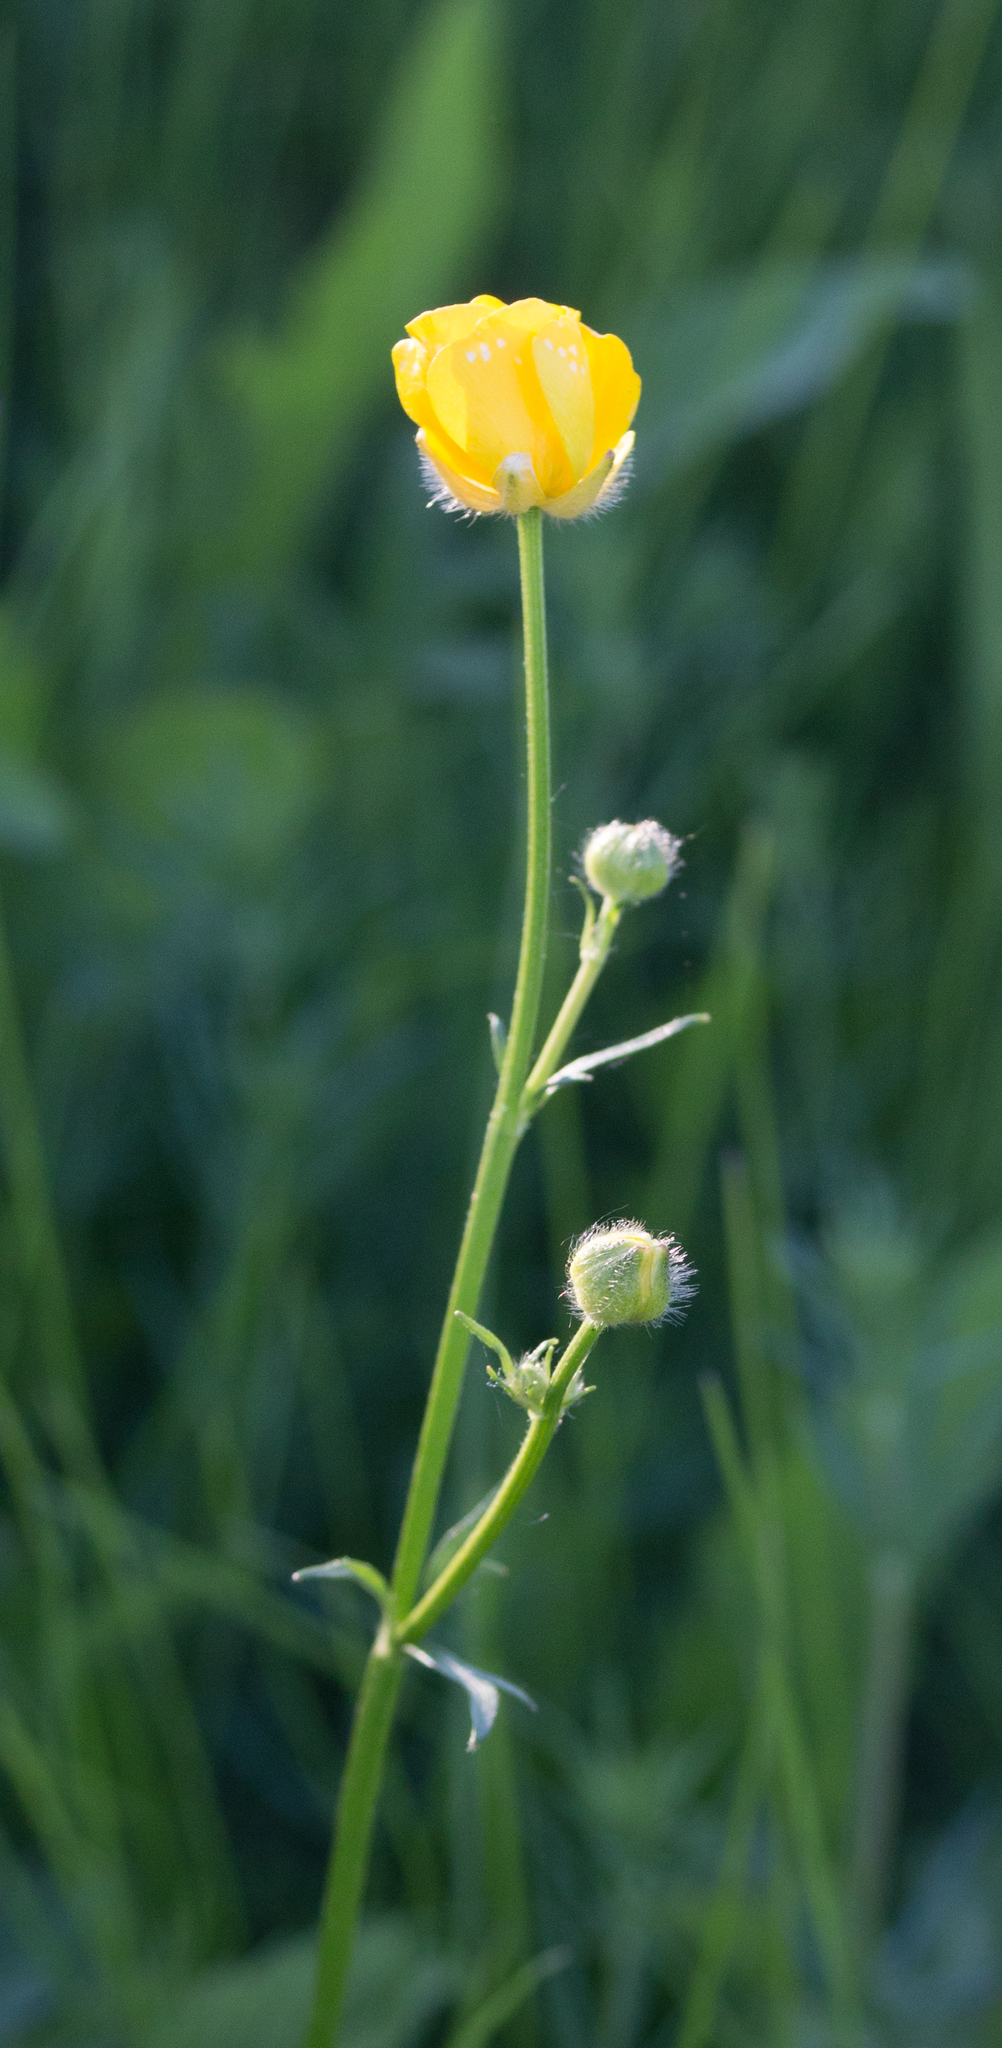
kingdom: Plantae
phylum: Tracheophyta
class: Magnoliopsida
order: Ranunculales
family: Ranunculaceae
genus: Ranunculus
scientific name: Ranunculus polyanthemos
